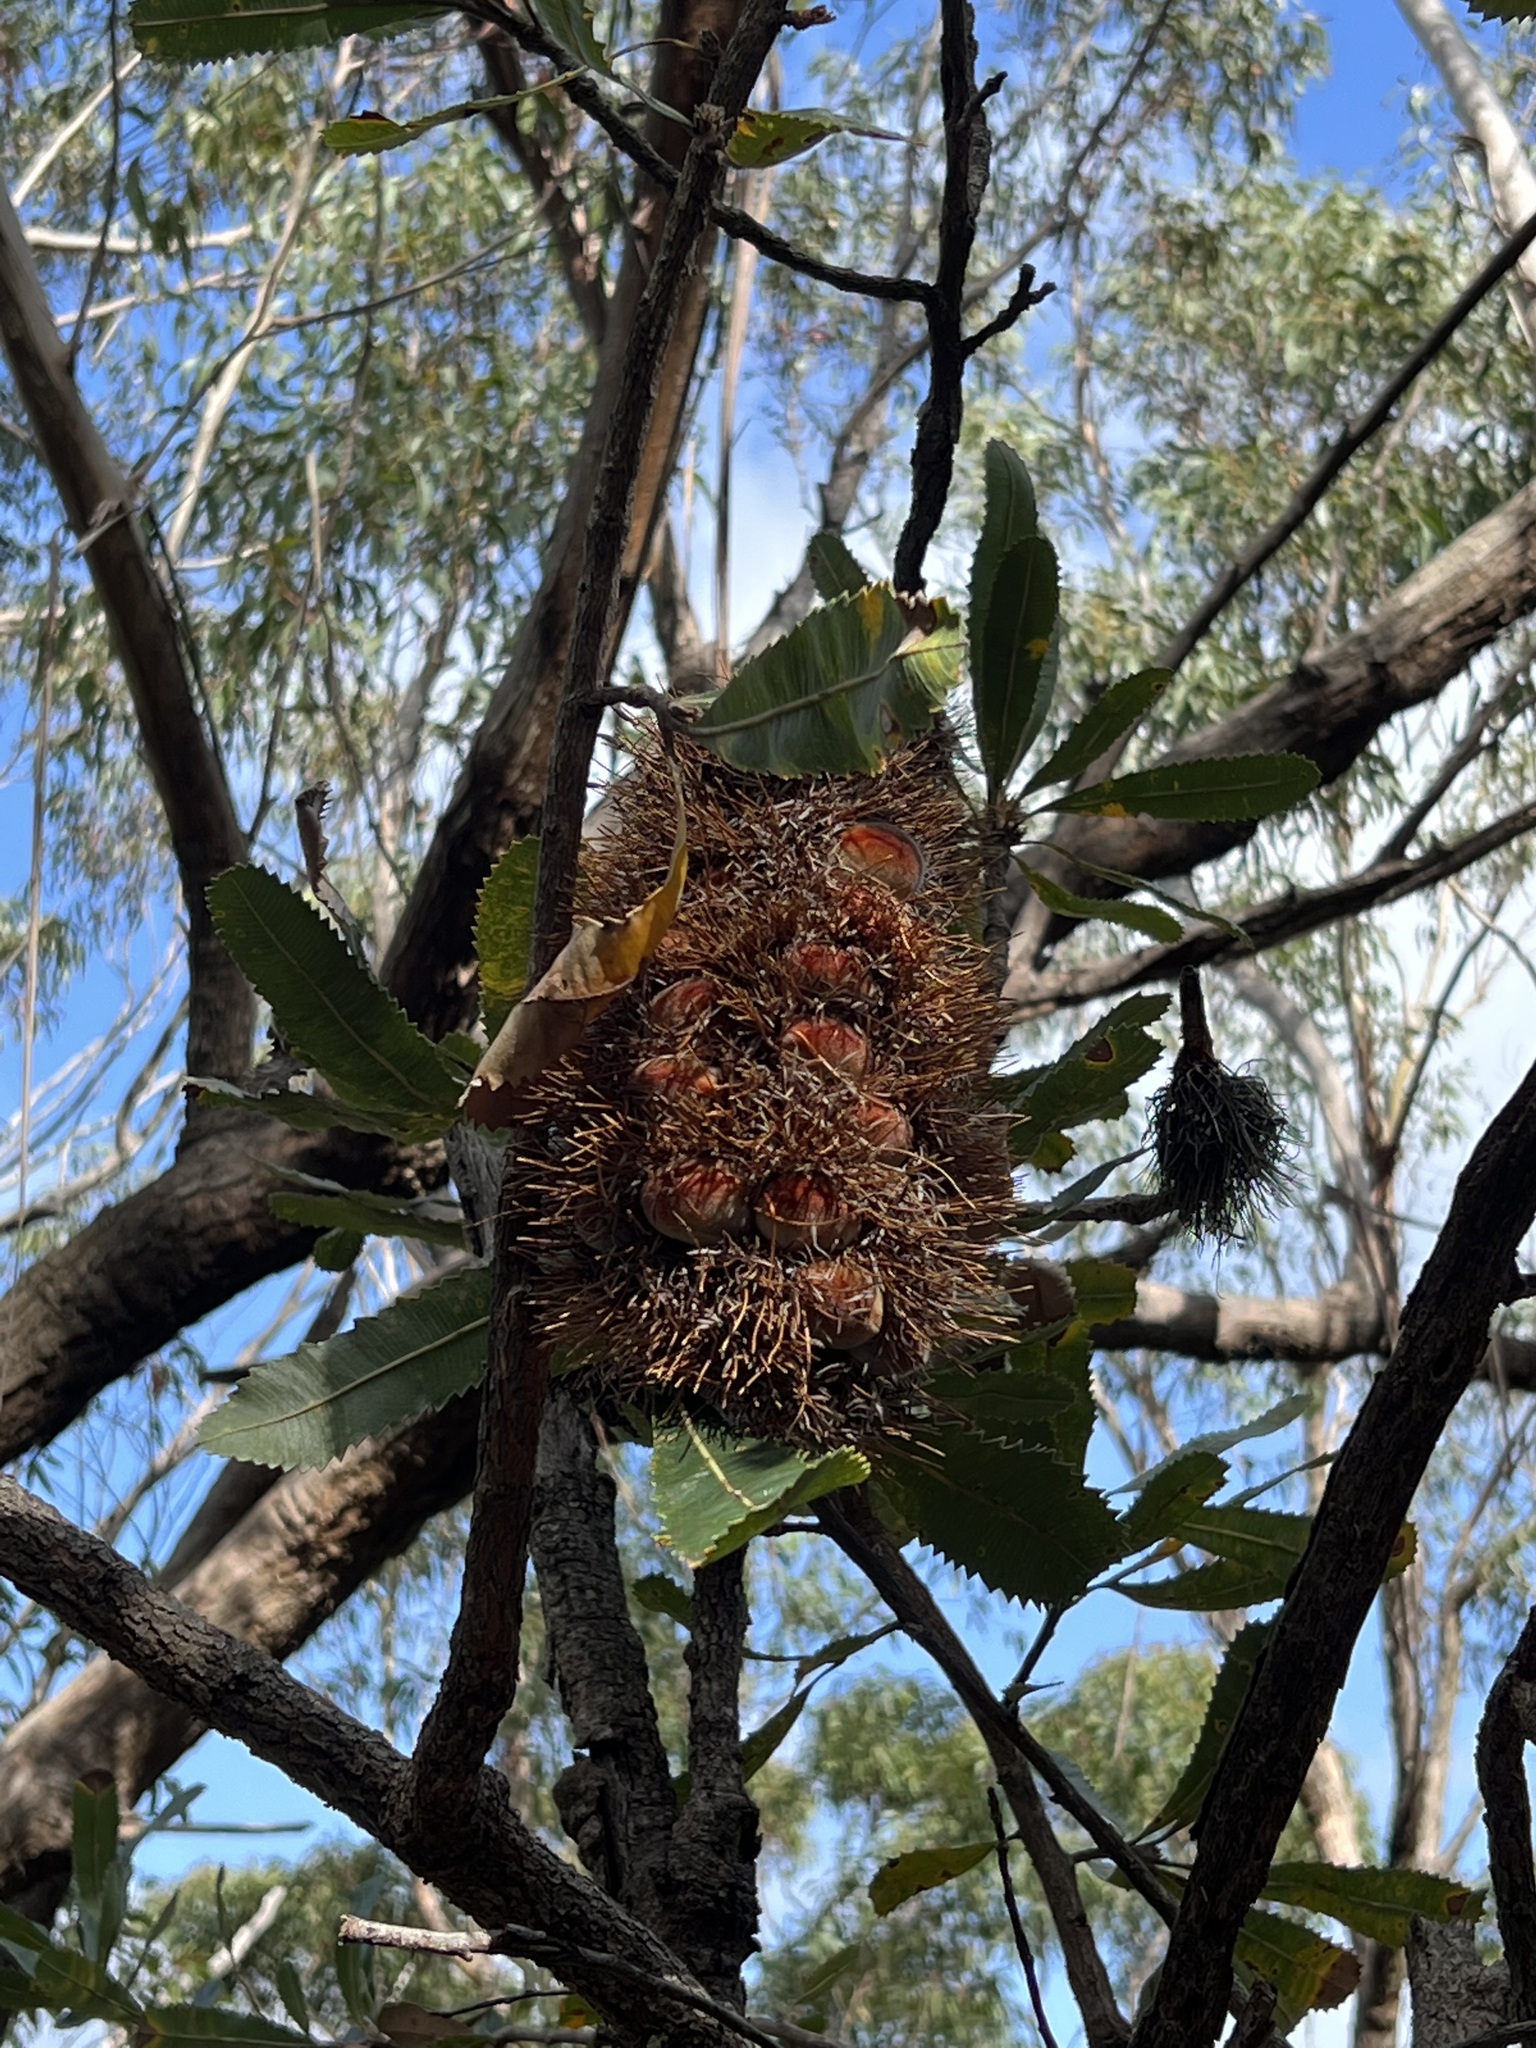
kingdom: Plantae
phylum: Tracheophyta
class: Magnoliopsida
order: Proteales
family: Proteaceae
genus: Banksia
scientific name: Banksia serrata
